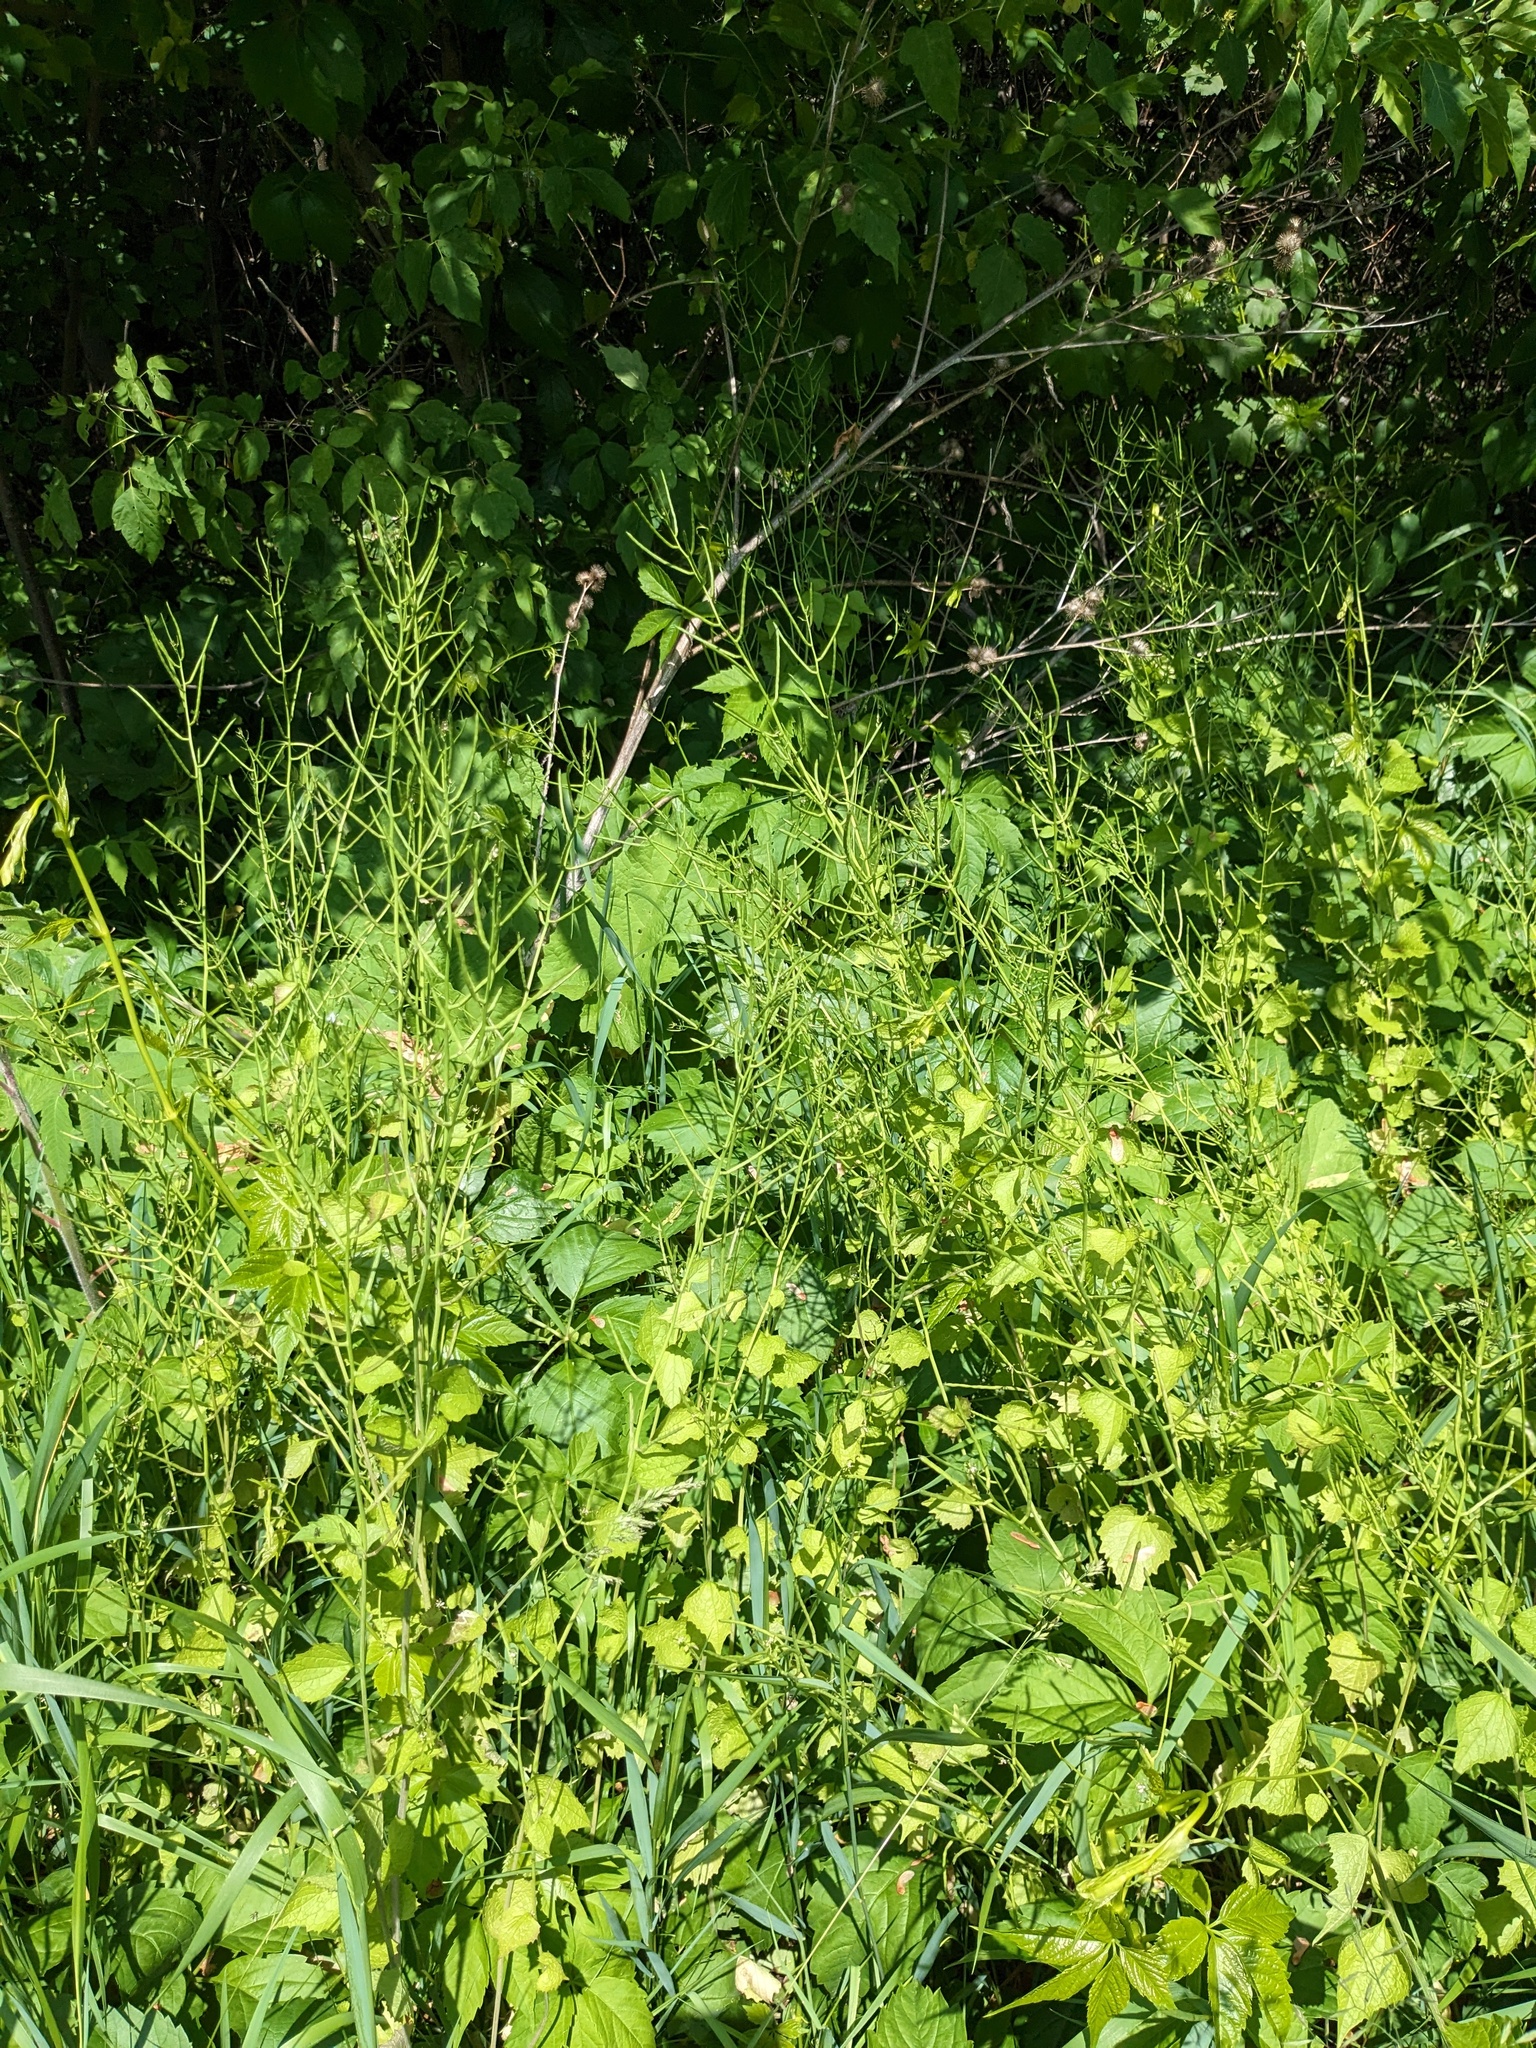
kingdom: Plantae
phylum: Tracheophyta
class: Magnoliopsida
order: Brassicales
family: Brassicaceae
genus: Alliaria
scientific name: Alliaria petiolata
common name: Garlic mustard
